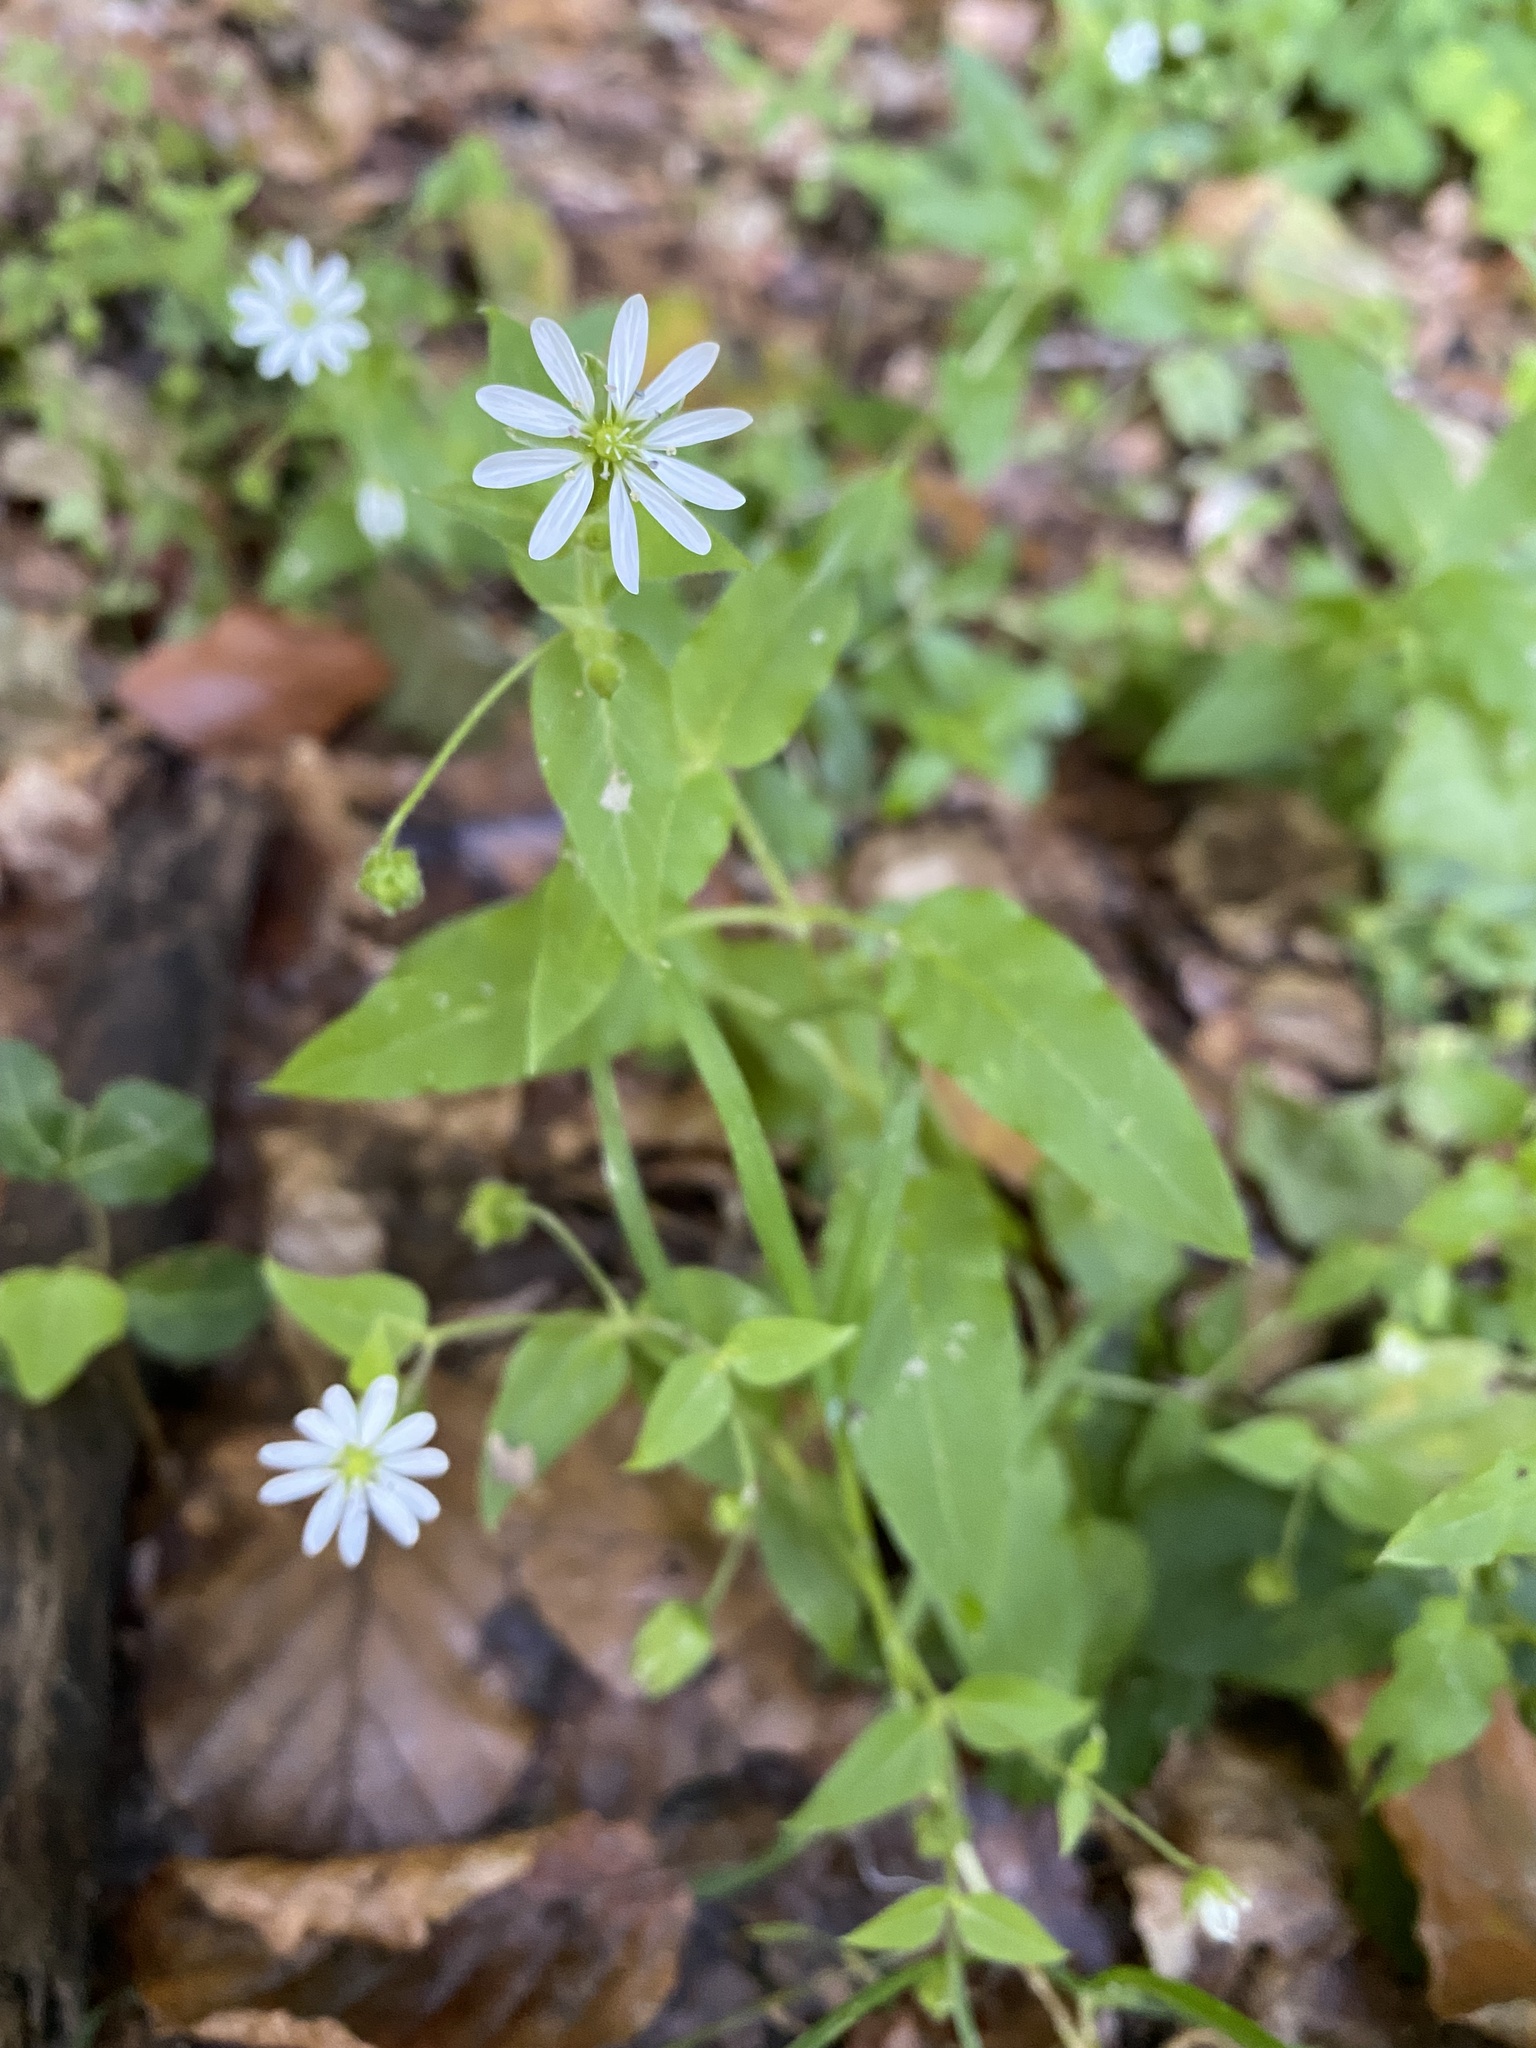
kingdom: Plantae
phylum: Tracheophyta
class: Magnoliopsida
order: Caryophyllales
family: Caryophyllaceae
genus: Stellaria
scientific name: Stellaria aquatica
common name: Water chickweed
